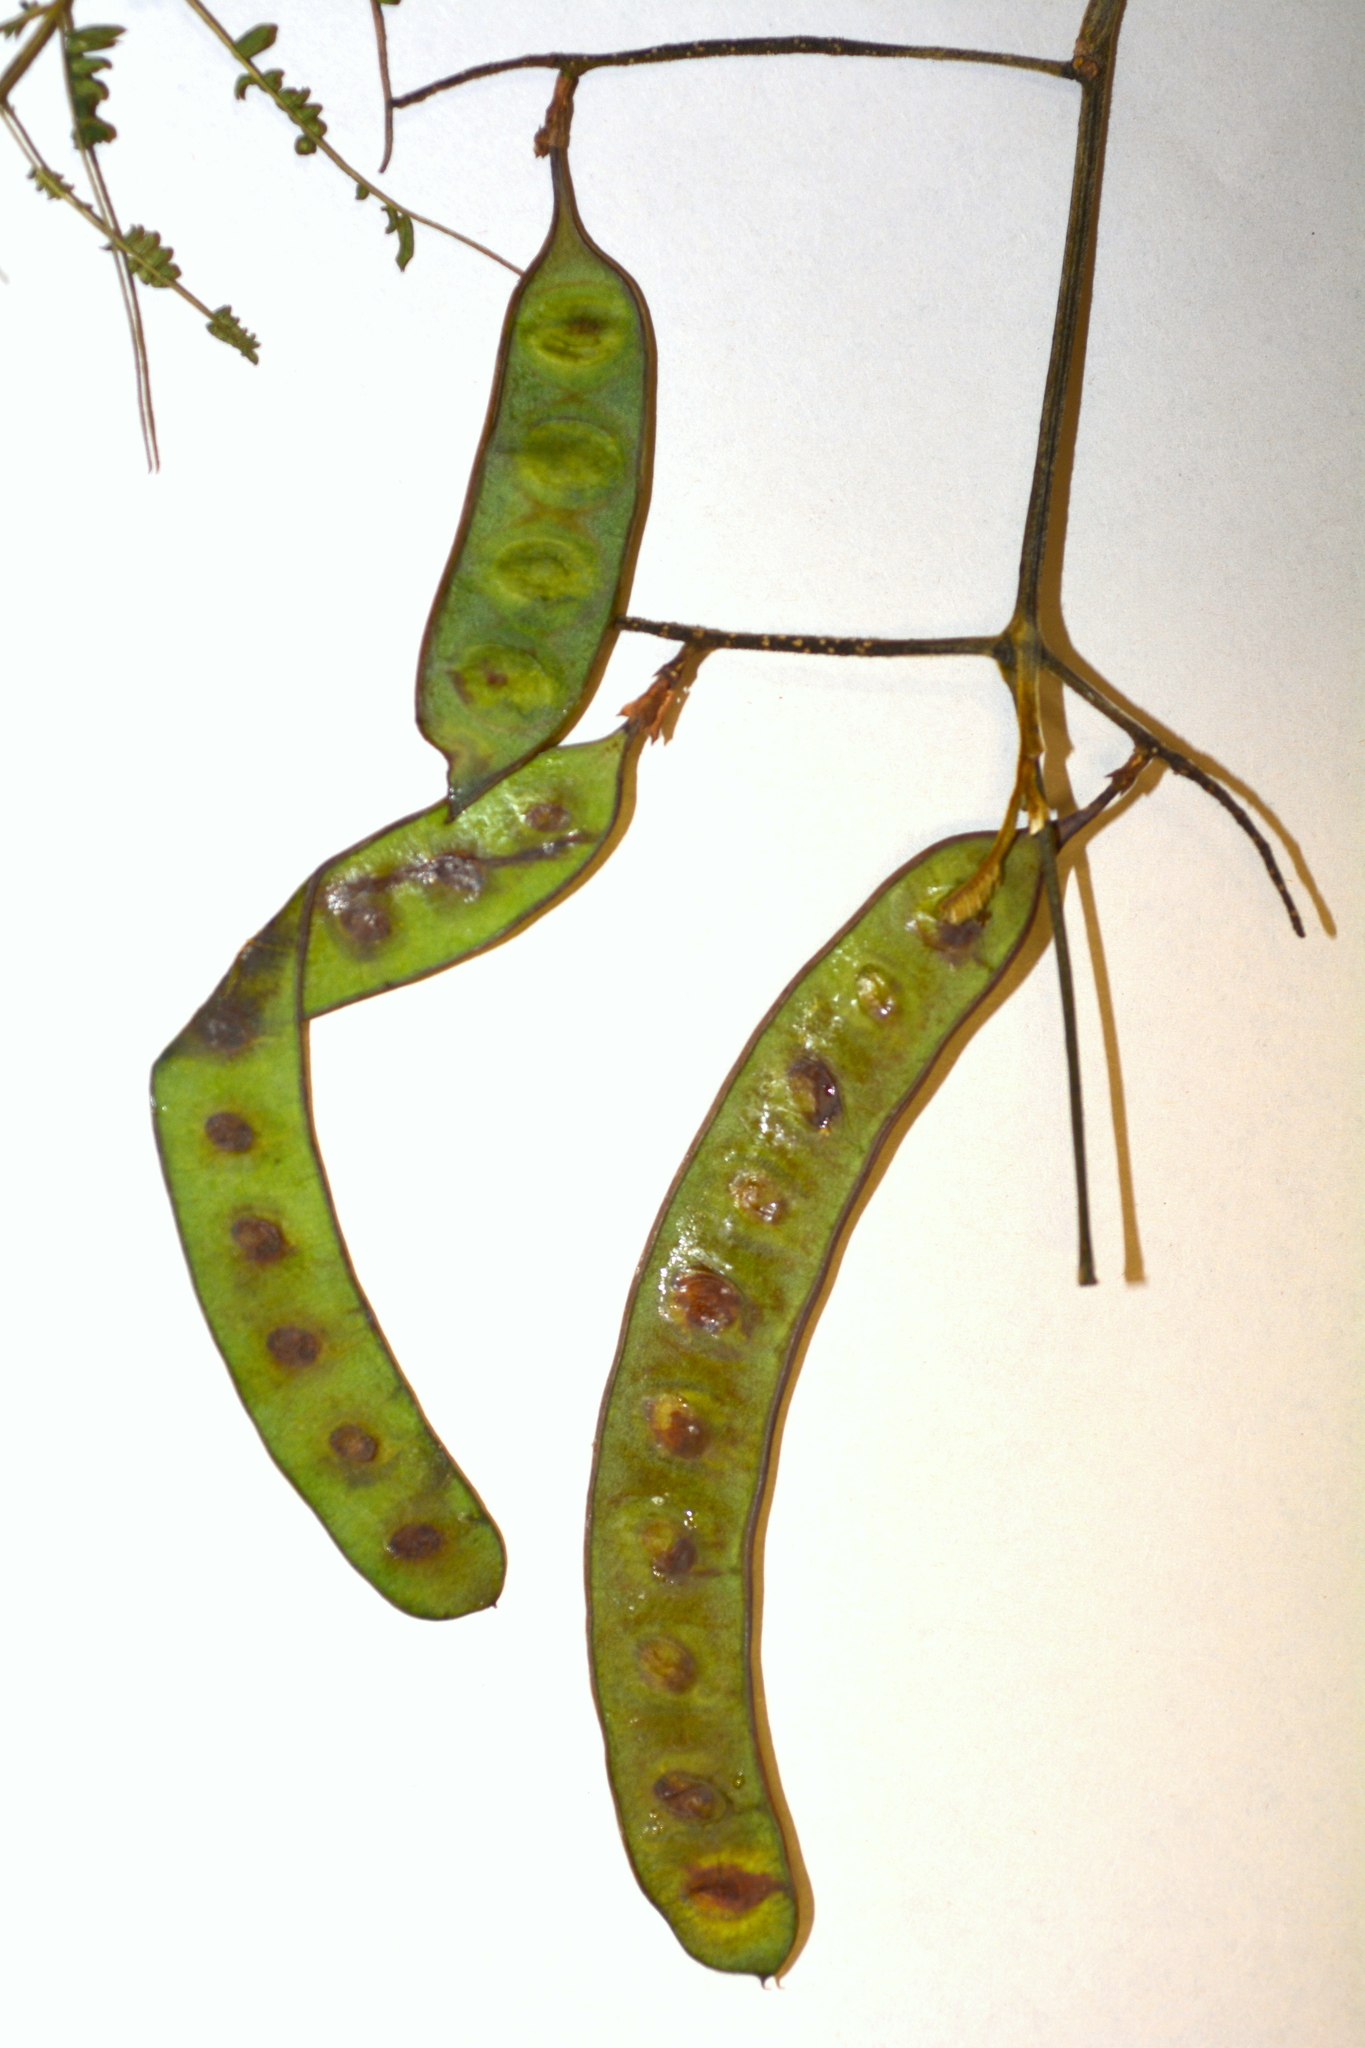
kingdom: Plantae
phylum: Tracheophyta
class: Magnoliopsida
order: Fabales
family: Fabaceae
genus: Paraserianthes
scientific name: Paraserianthes lophantha
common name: Plume albizia
